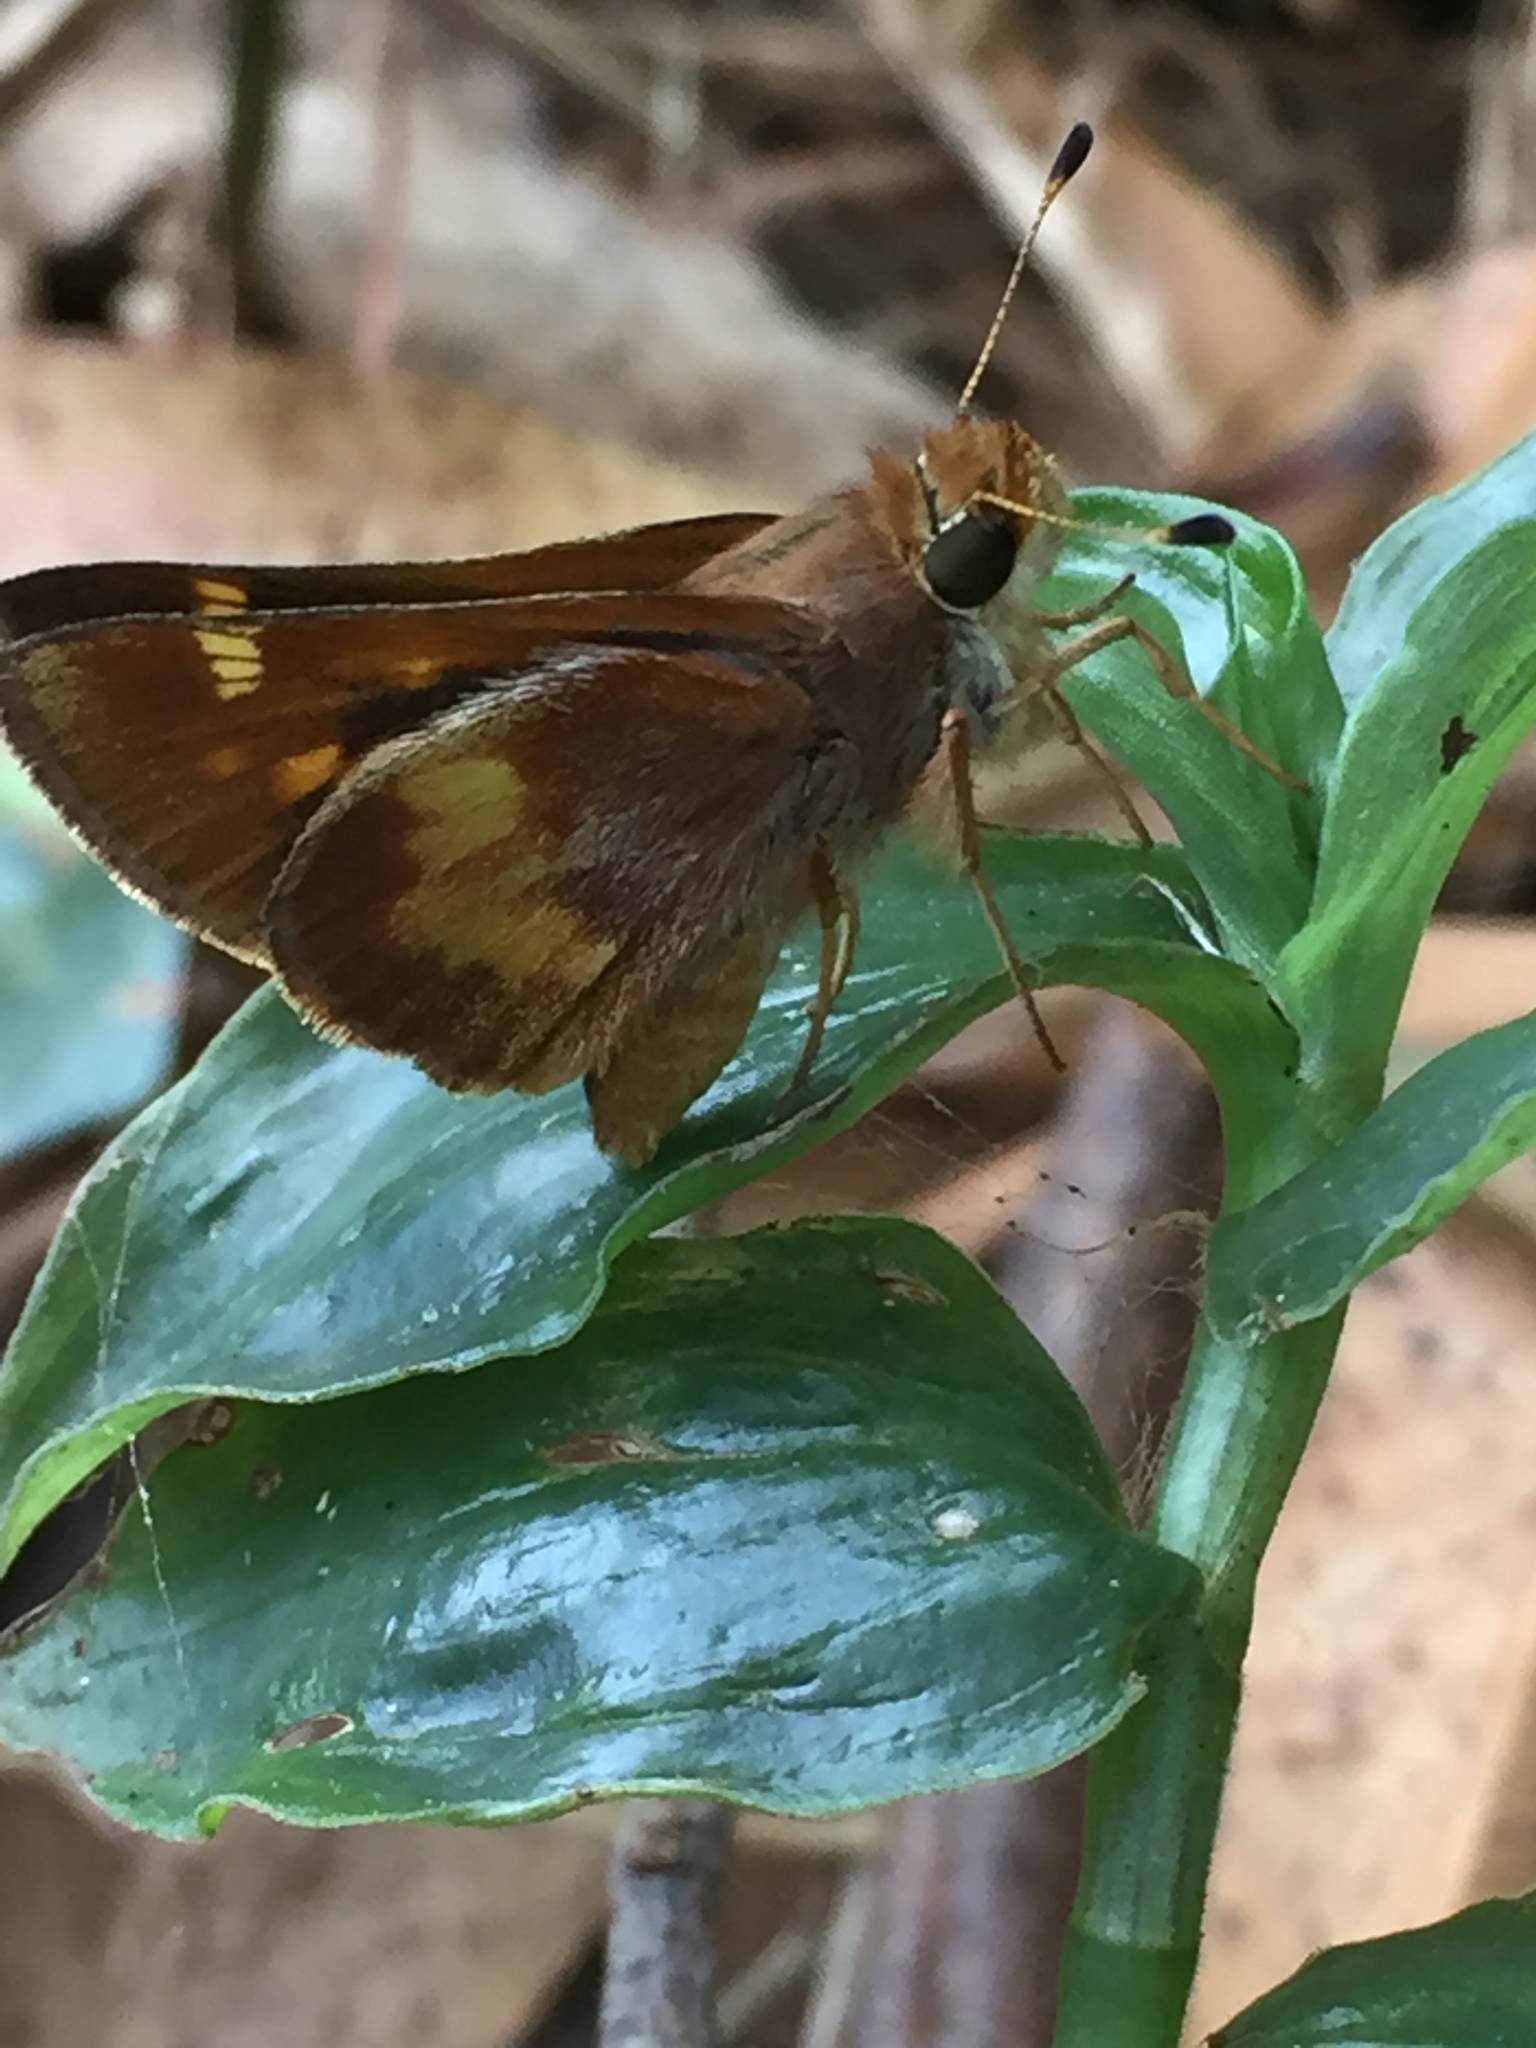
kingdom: Animalia
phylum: Arthropoda
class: Insecta
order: Lepidoptera
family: Hesperiidae
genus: Lon
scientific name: Lon melane
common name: Umber skipper
